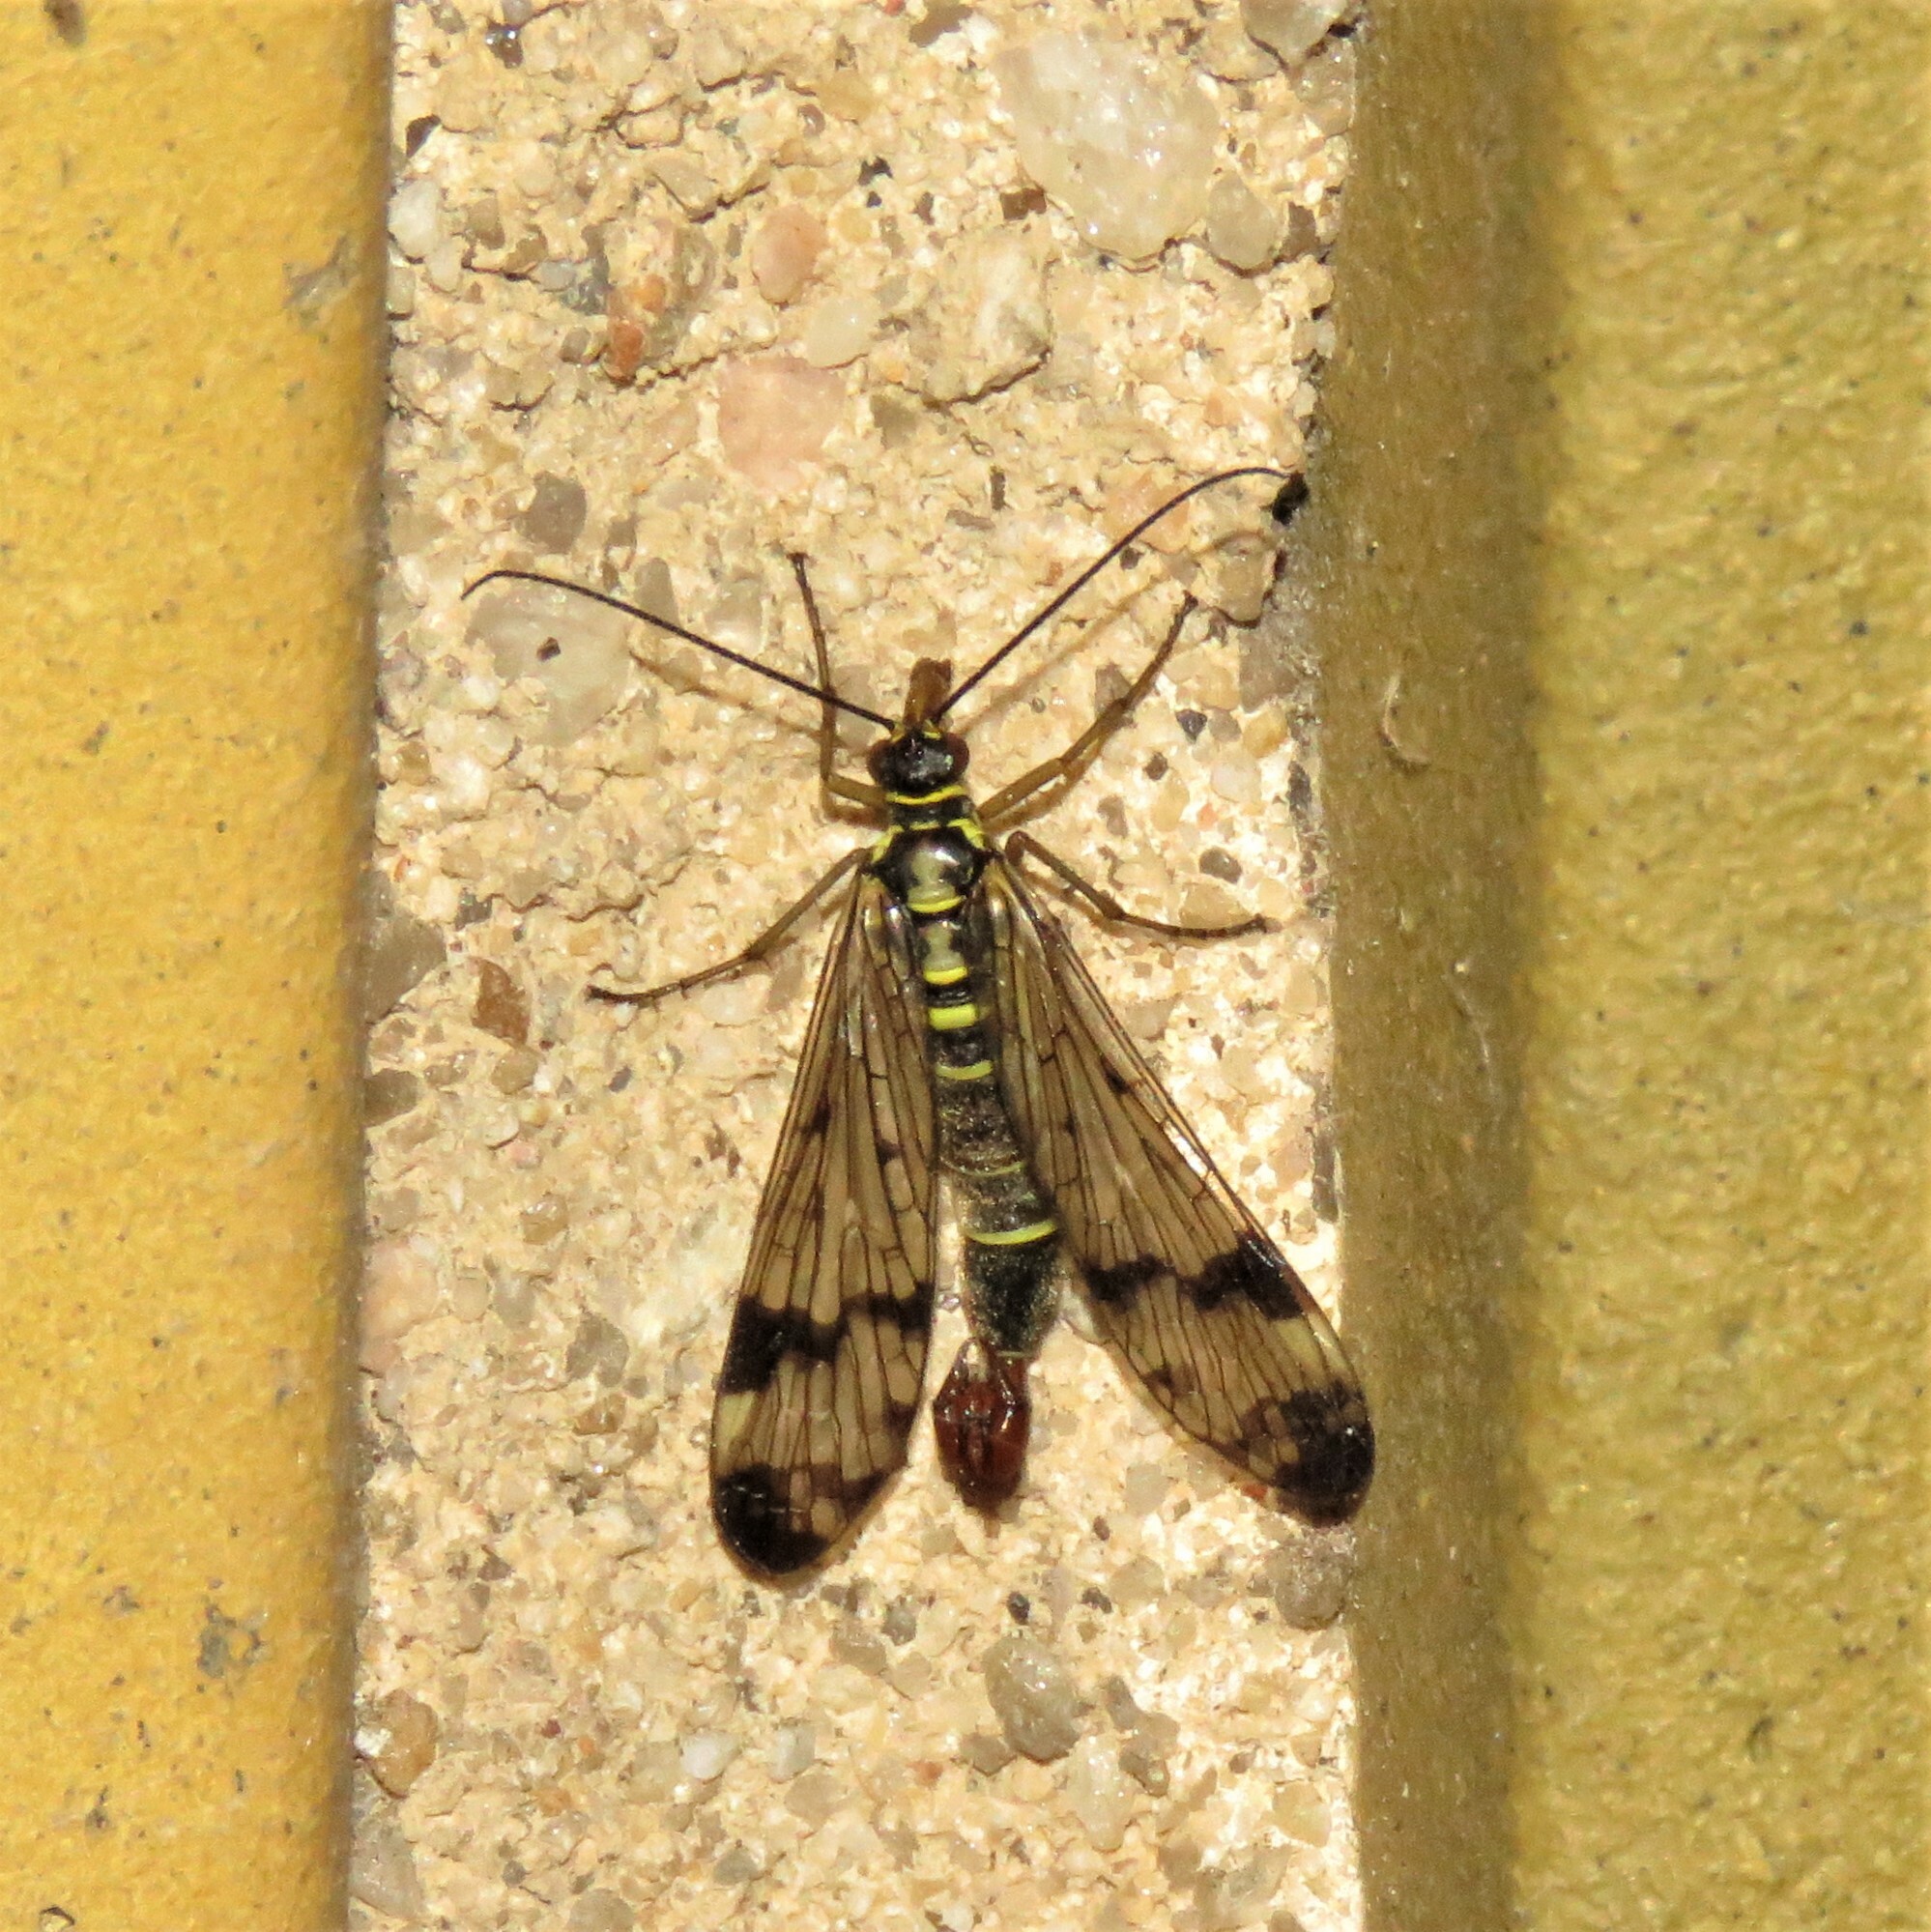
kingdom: Animalia
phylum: Arthropoda
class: Insecta
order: Mecoptera
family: Panorpidae
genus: Panorpa
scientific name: Panorpa communis
